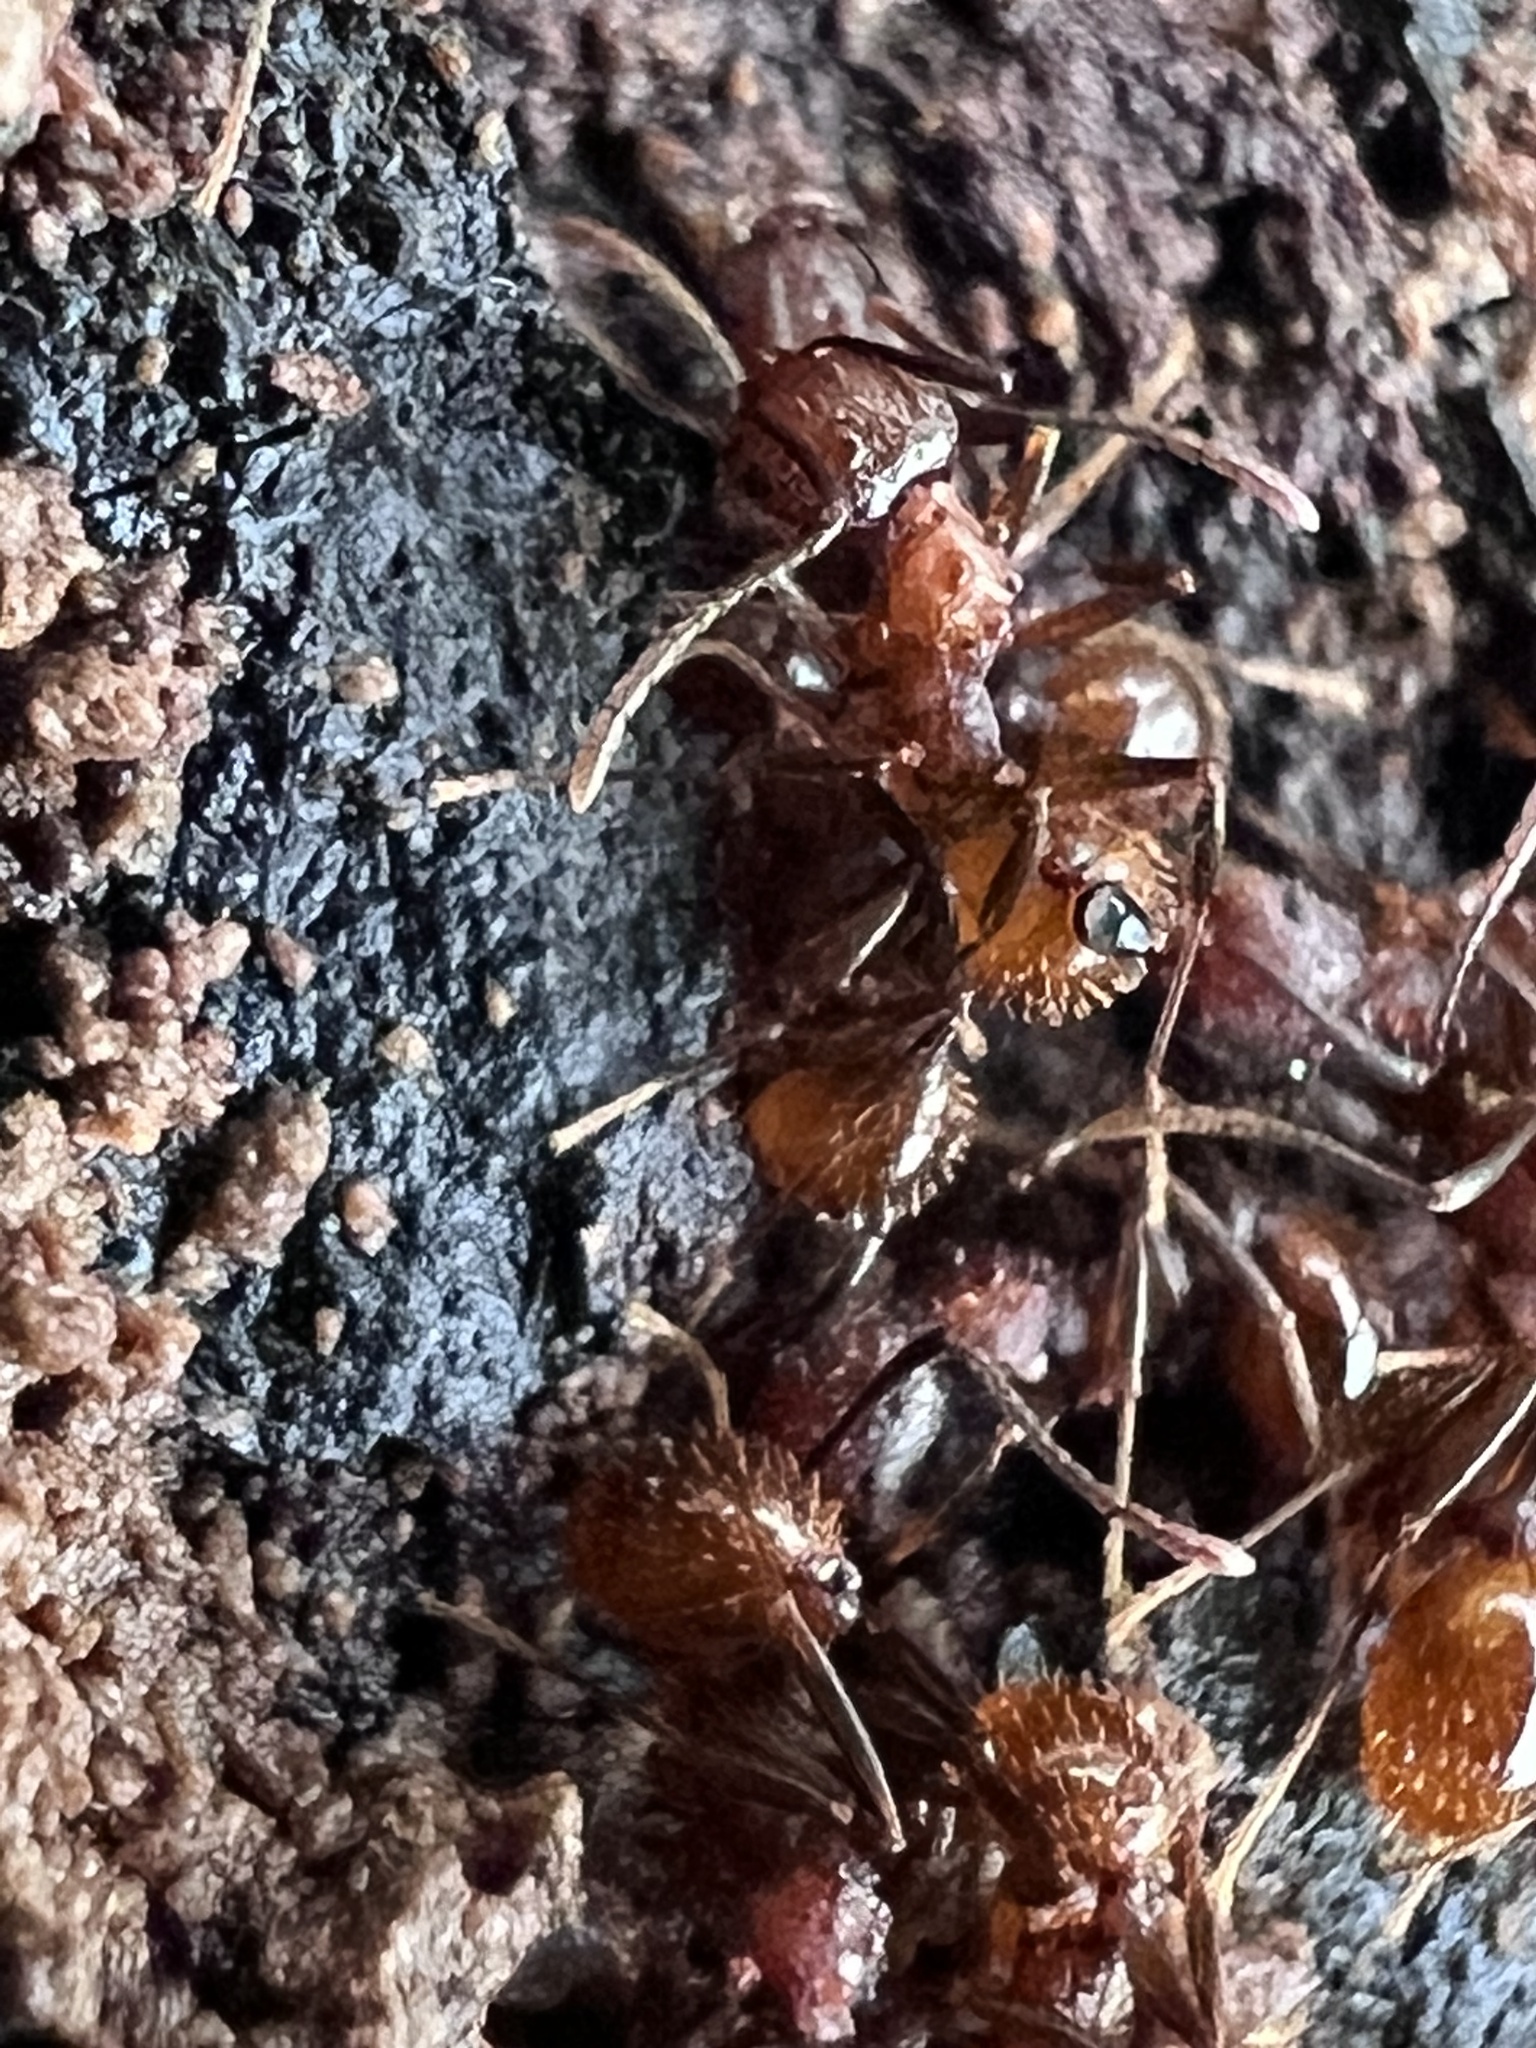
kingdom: Animalia
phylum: Arthropoda
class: Insecta
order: Hymenoptera
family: Formicidae
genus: Aphaenogaster
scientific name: Aphaenogaster fulva
